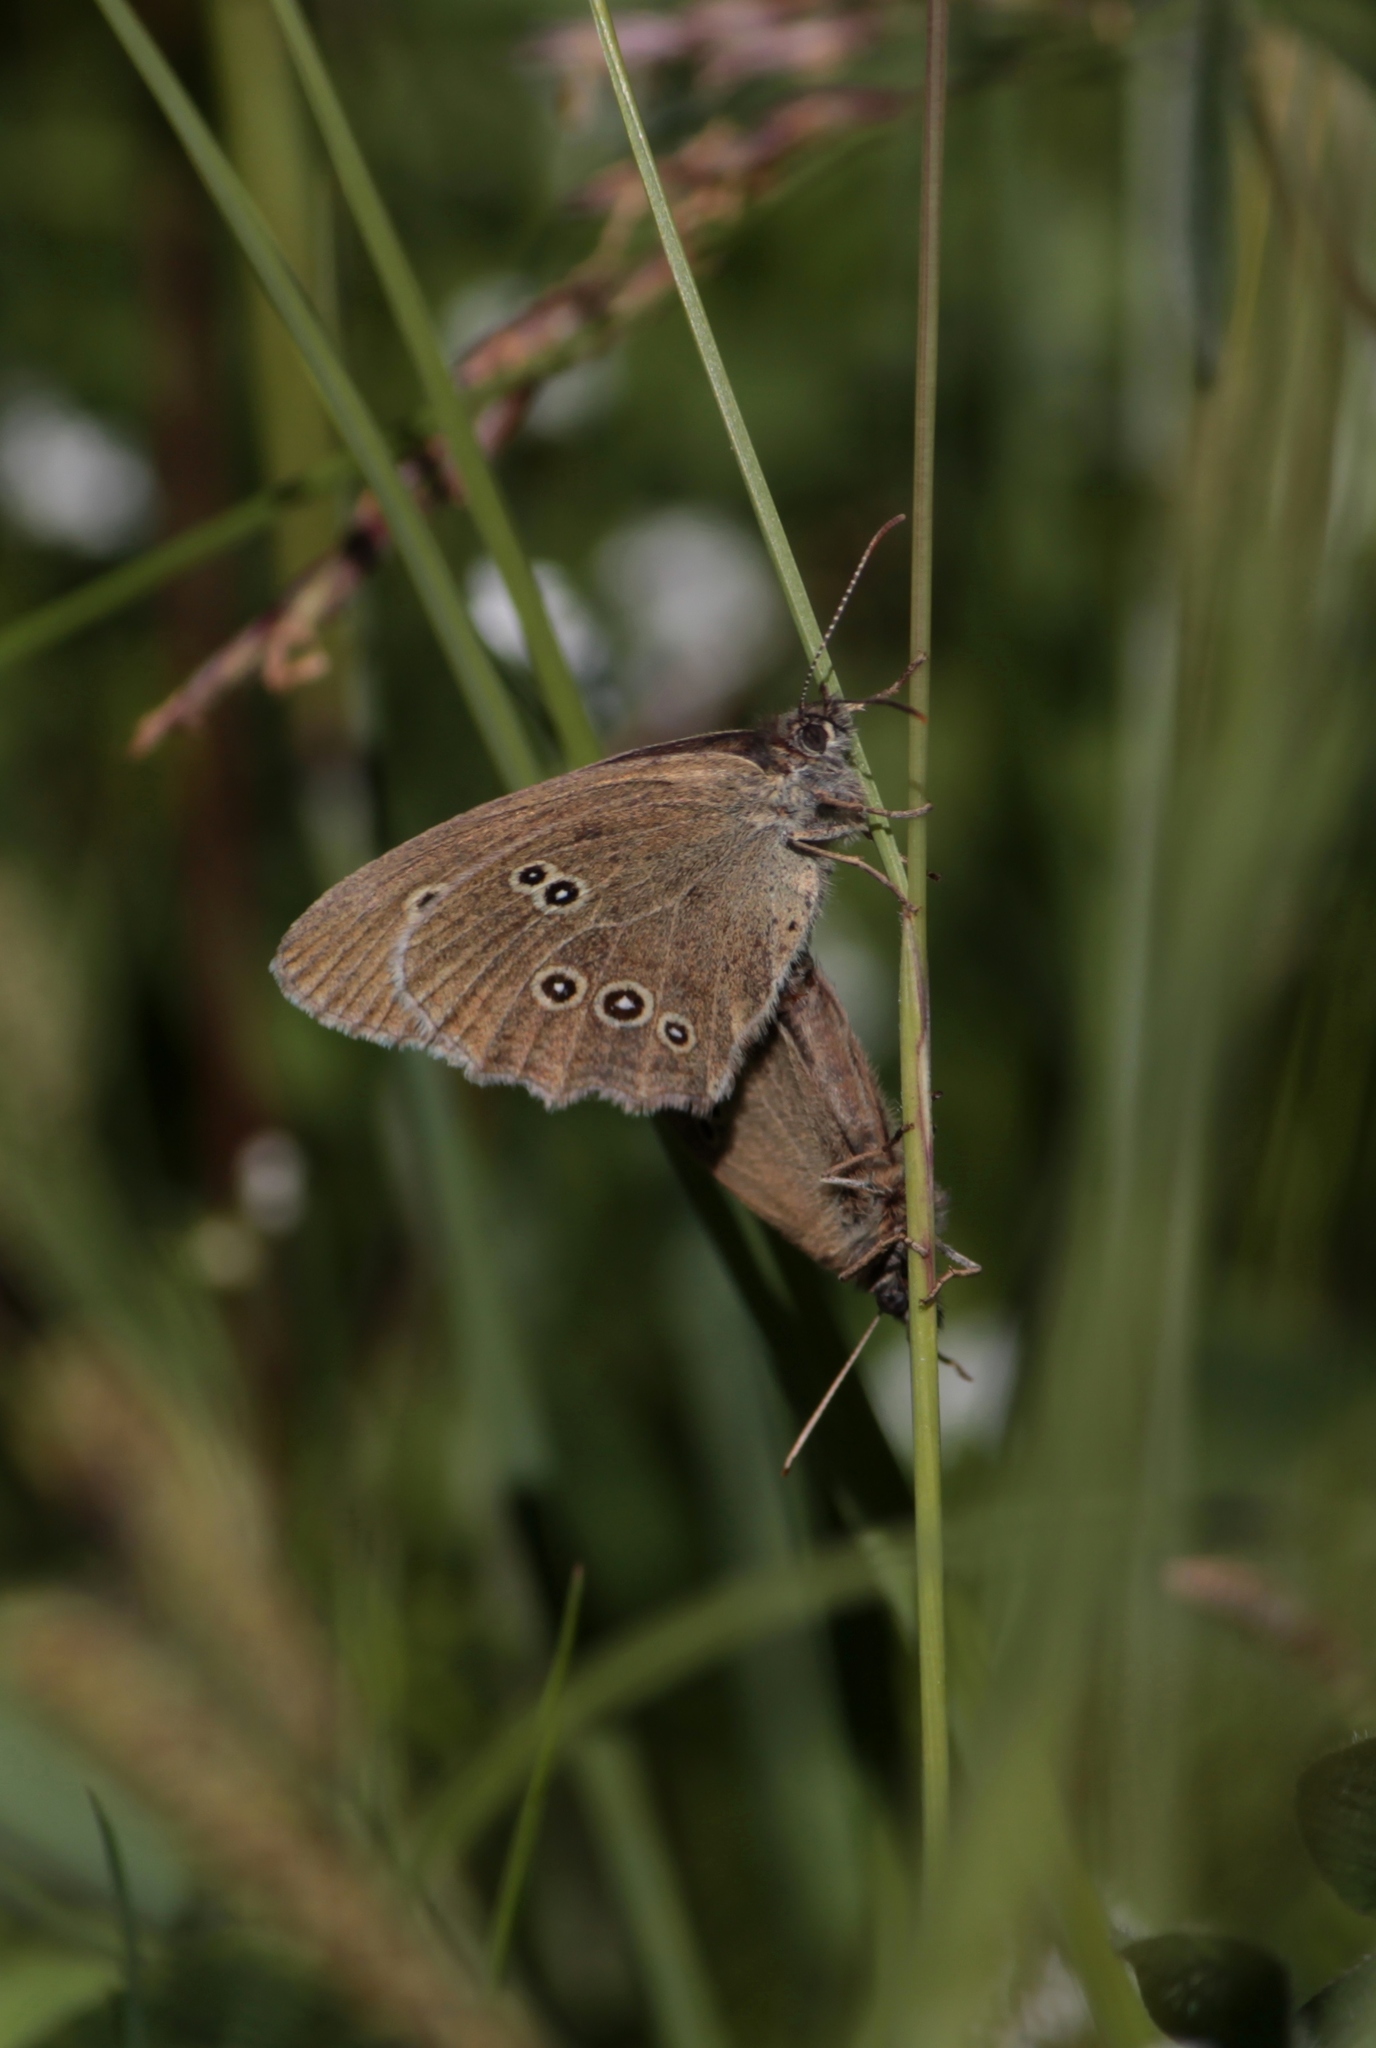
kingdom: Animalia
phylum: Arthropoda
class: Insecta
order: Lepidoptera
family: Nymphalidae
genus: Aphantopus
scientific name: Aphantopus hyperantus
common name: Ringlet
